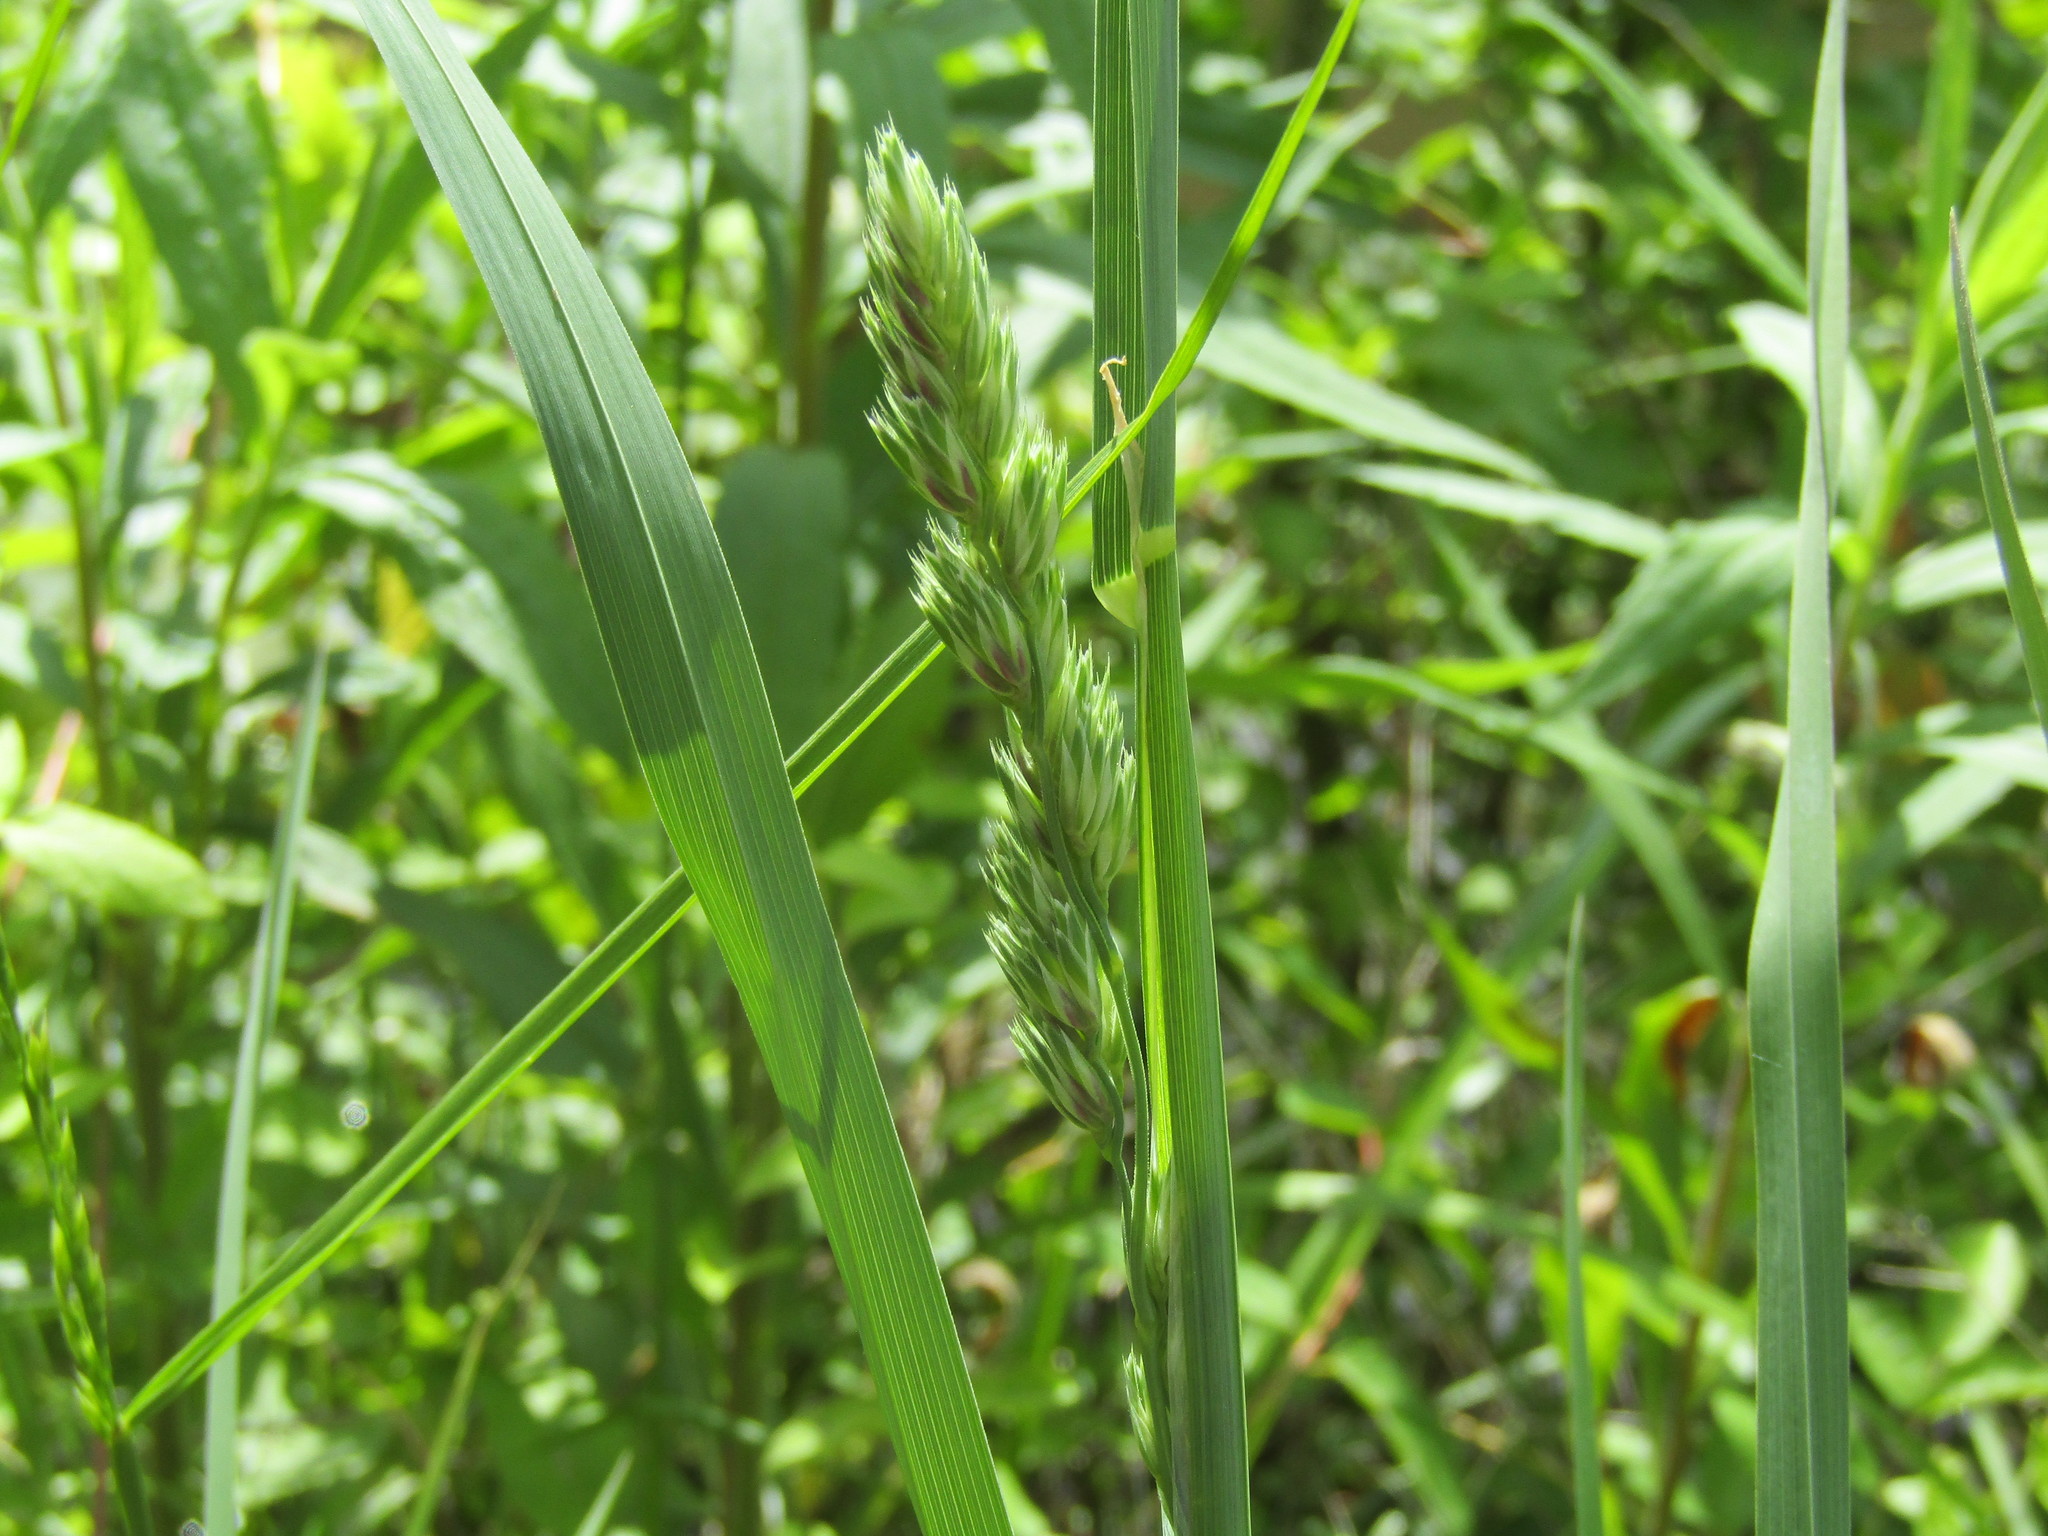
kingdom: Plantae
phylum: Tracheophyta
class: Liliopsida
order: Poales
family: Poaceae
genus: Dactylis
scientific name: Dactylis glomerata
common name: Orchardgrass
